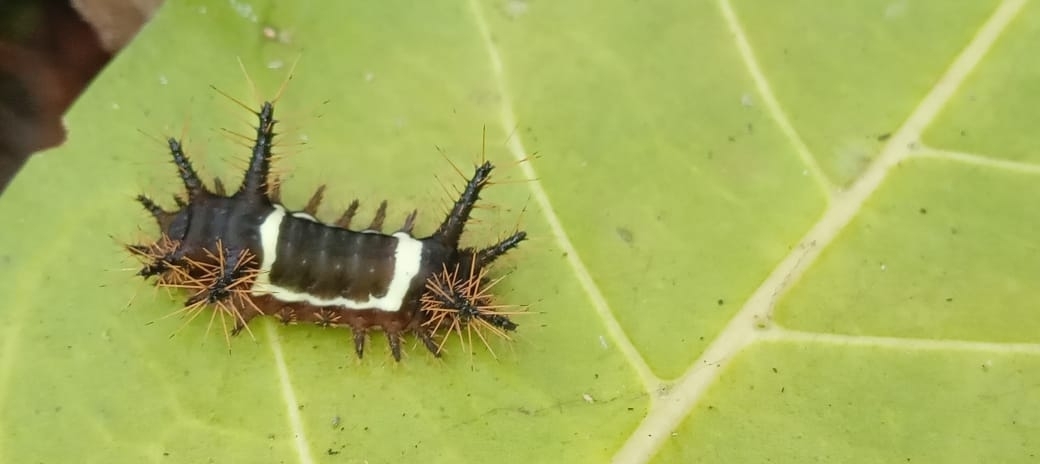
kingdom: Animalia
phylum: Arthropoda
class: Insecta
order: Lepidoptera
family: Limacodidae
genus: Sibine
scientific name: Sibine nesea
